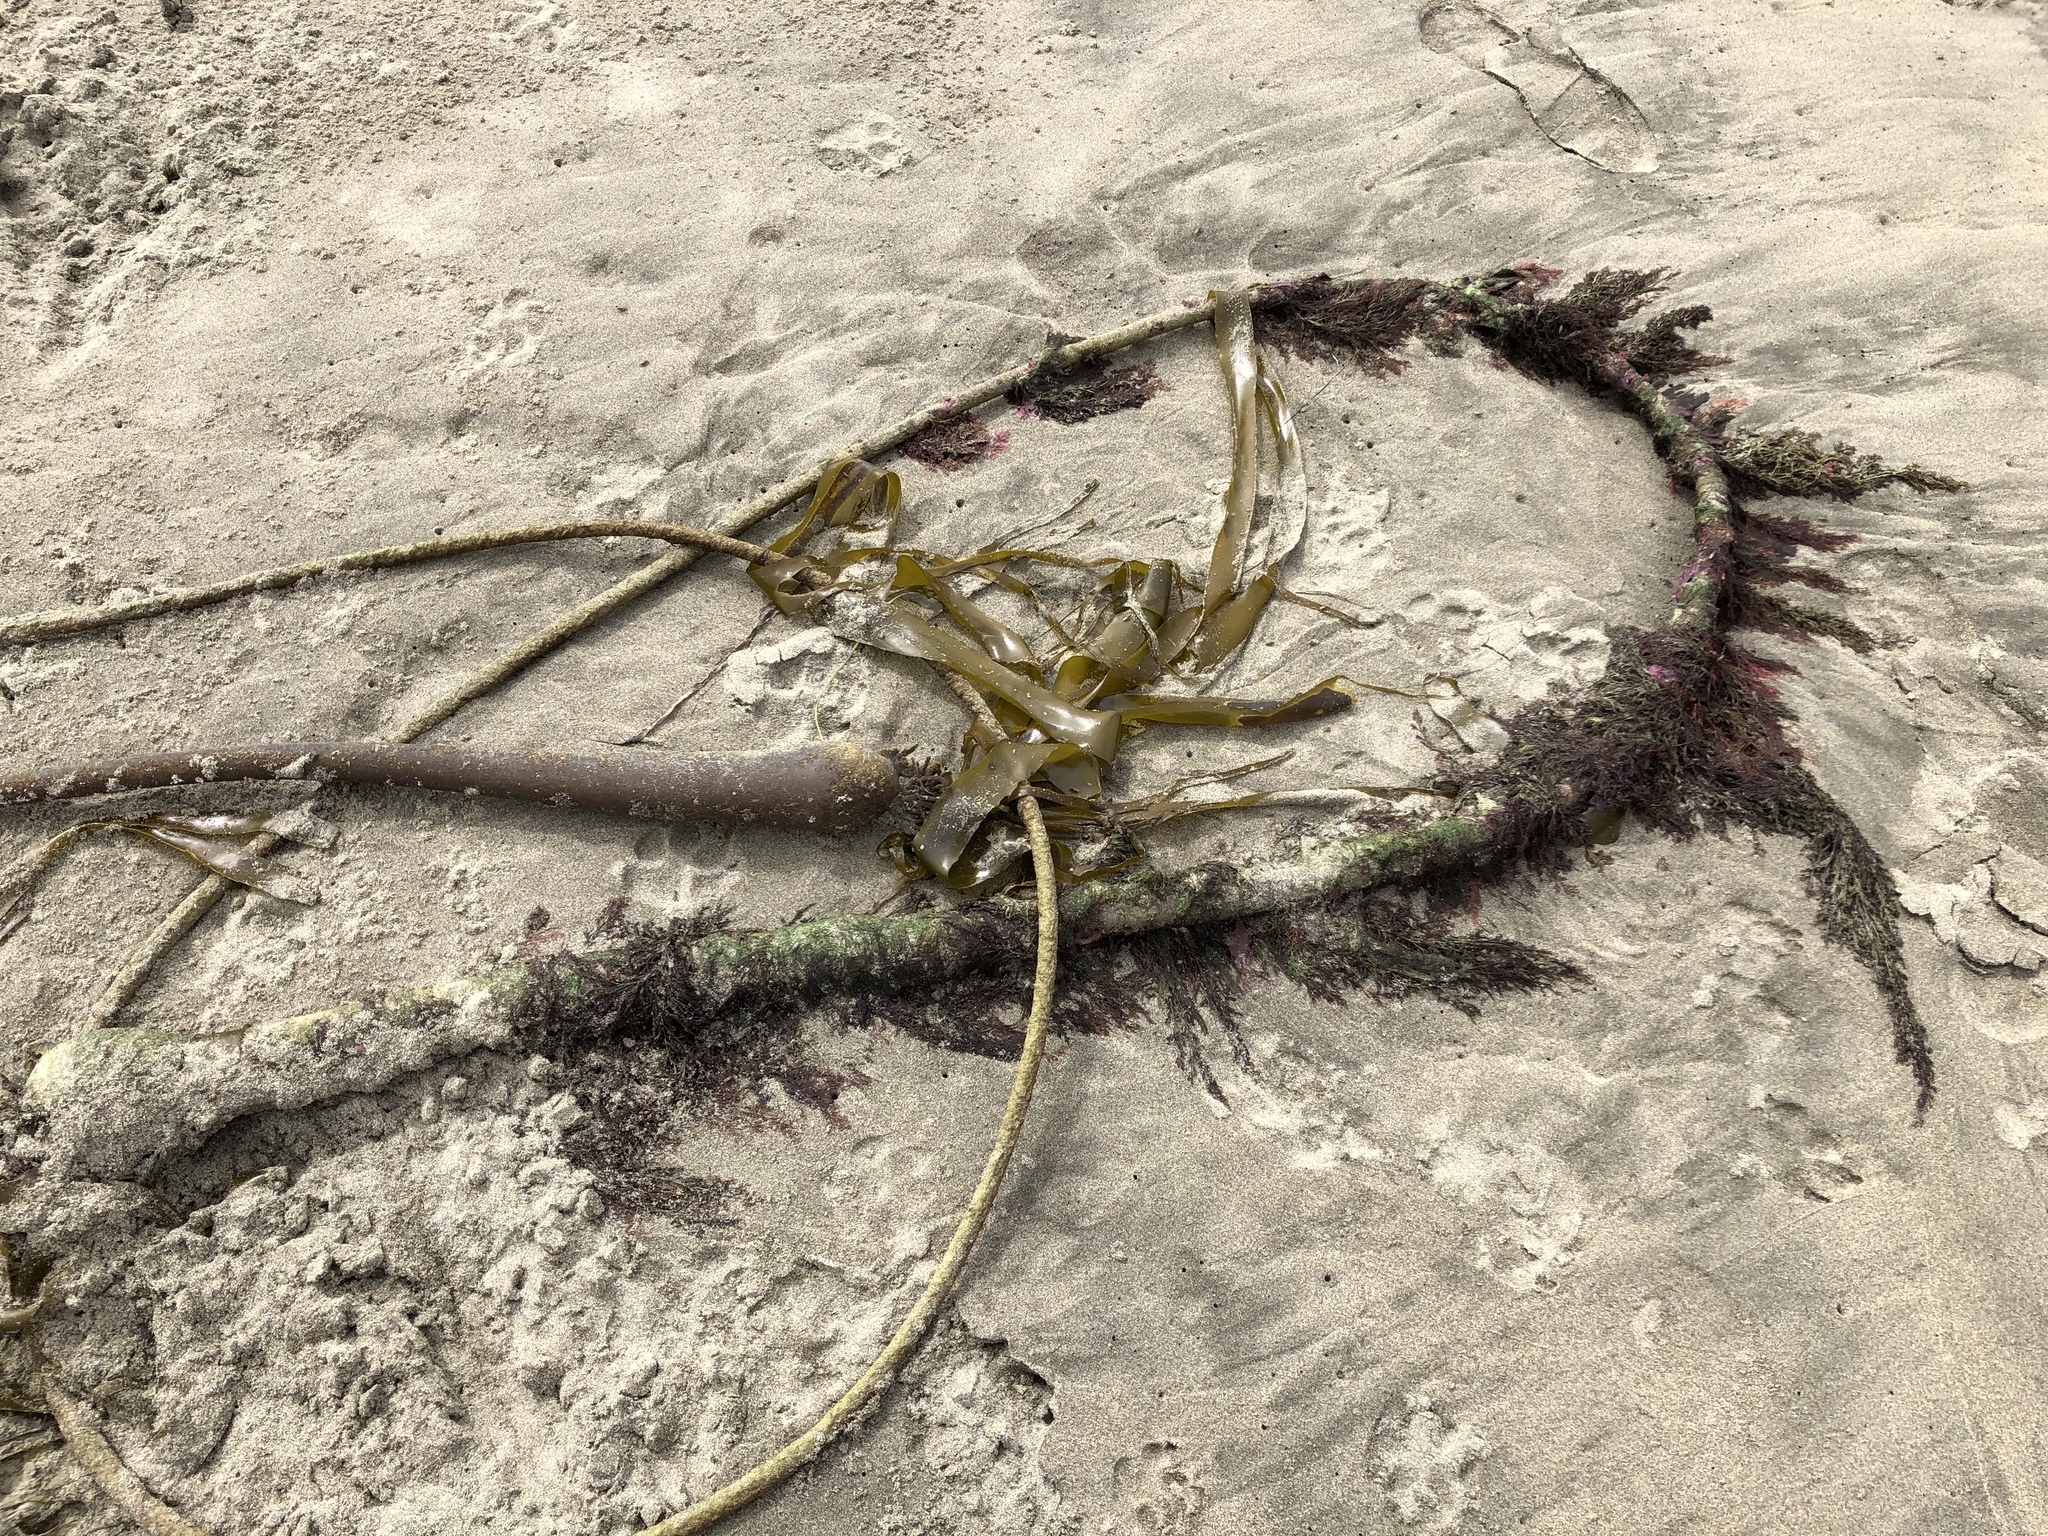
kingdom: Chromista
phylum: Ochrophyta
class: Phaeophyceae
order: Laminariales
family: Laminariaceae
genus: Nereocystis
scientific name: Nereocystis luetkeana
